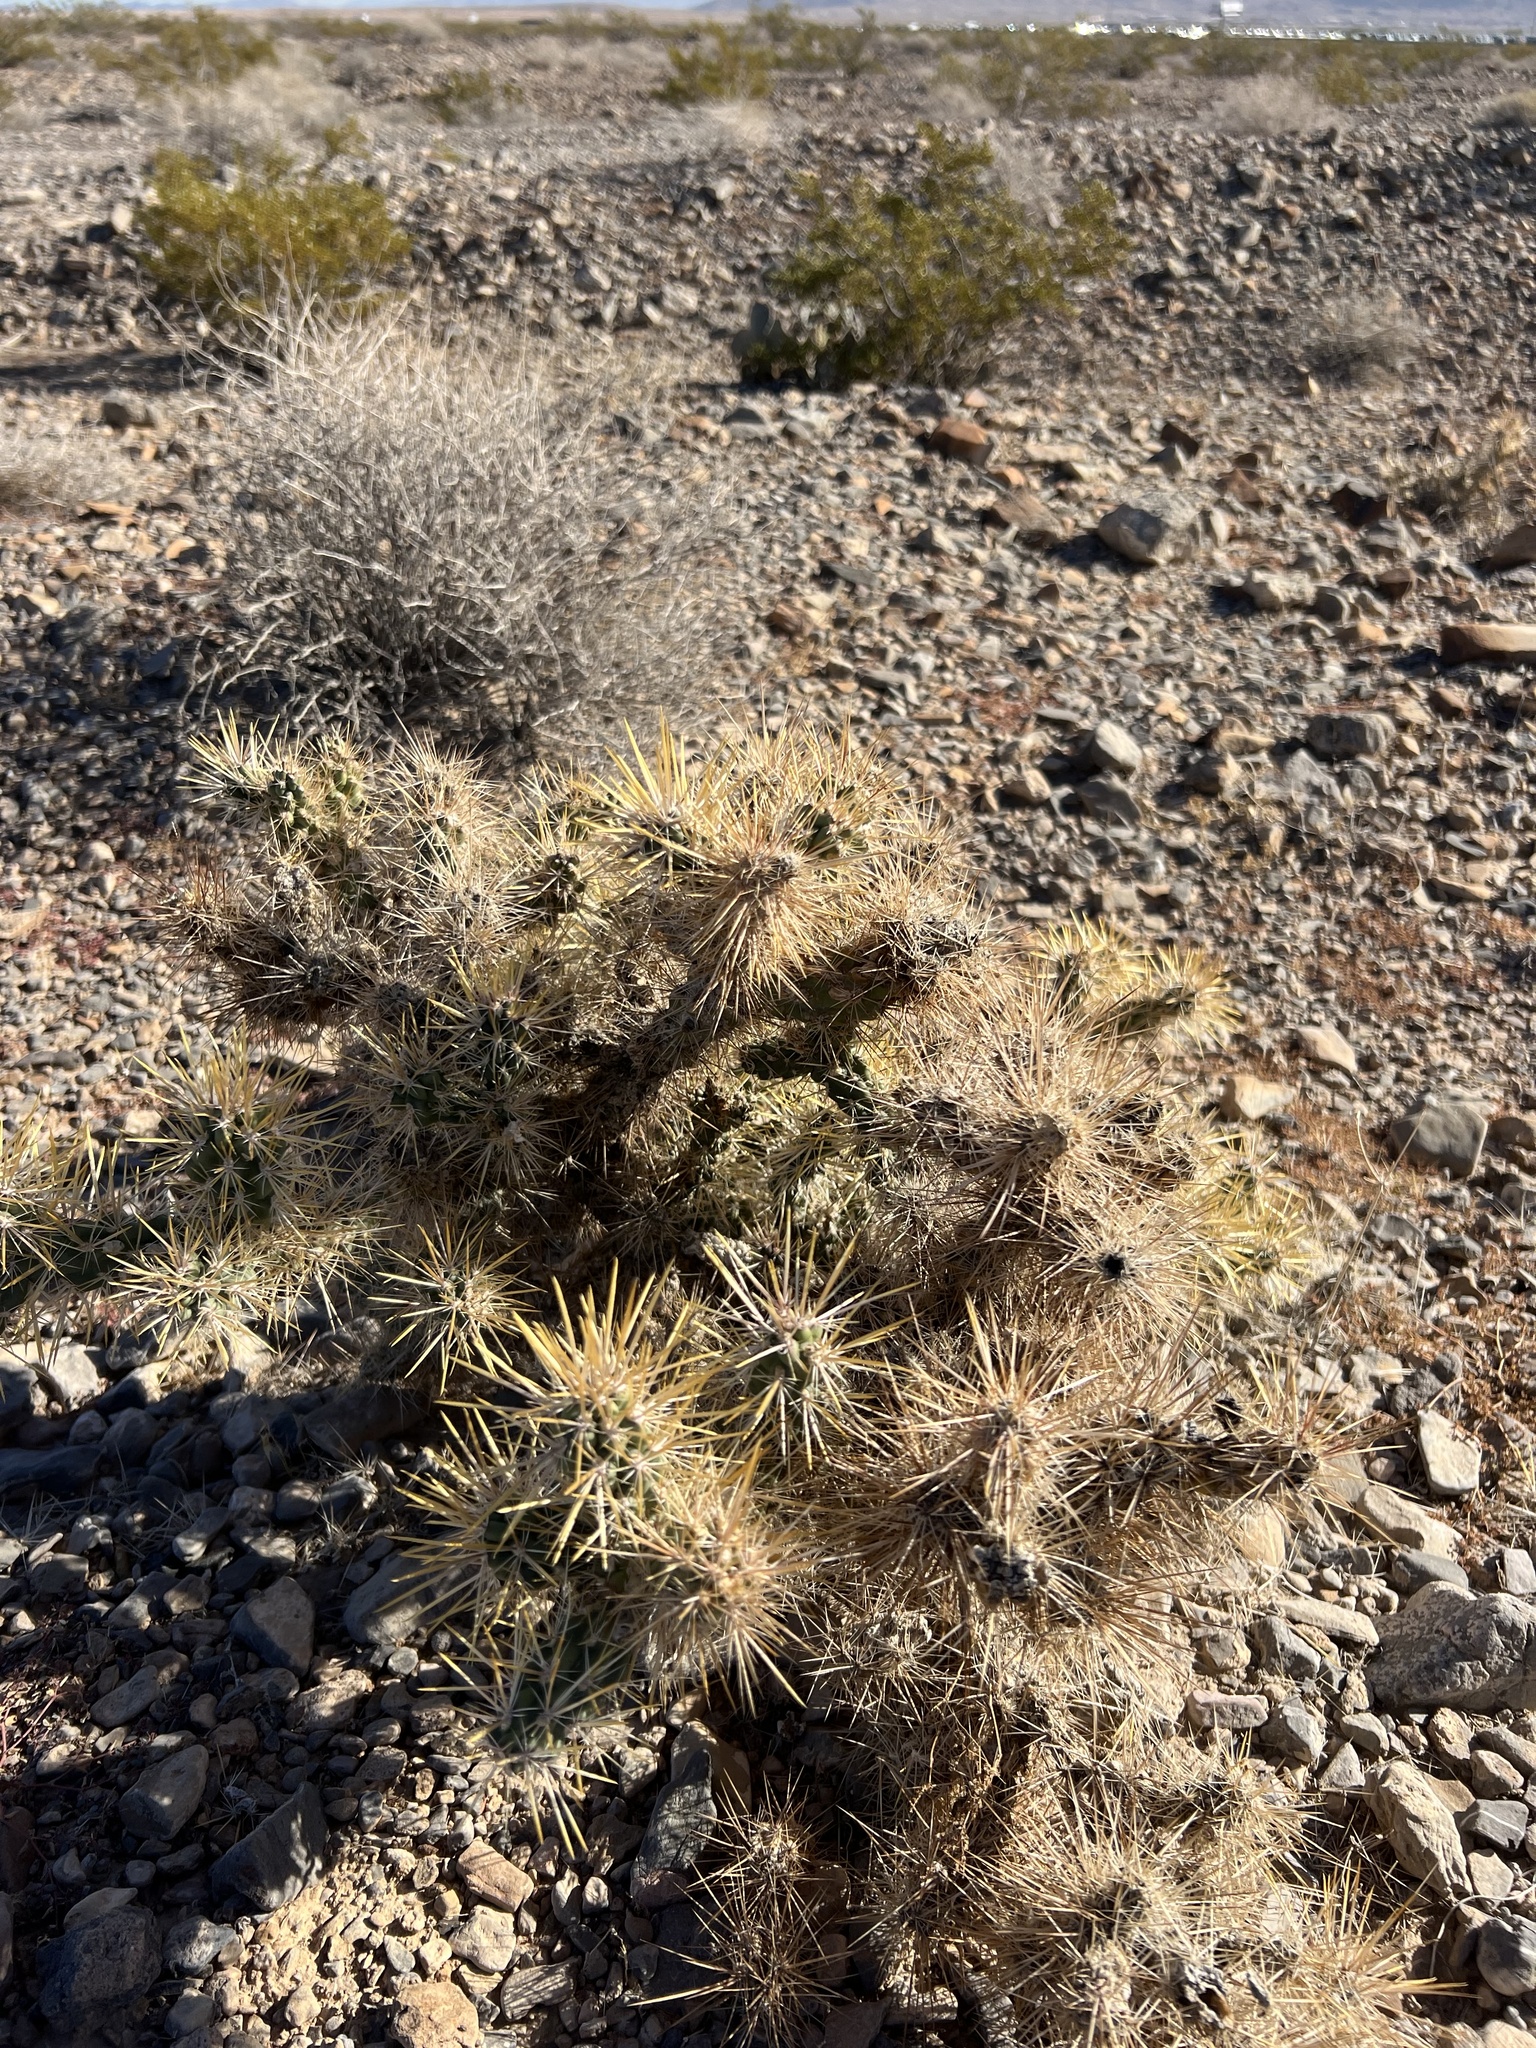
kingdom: Plantae
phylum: Tracheophyta
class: Magnoliopsida
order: Caryophyllales
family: Cactaceae
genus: Cylindropuntia
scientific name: Cylindropuntia echinocarpa
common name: Ground cholla
